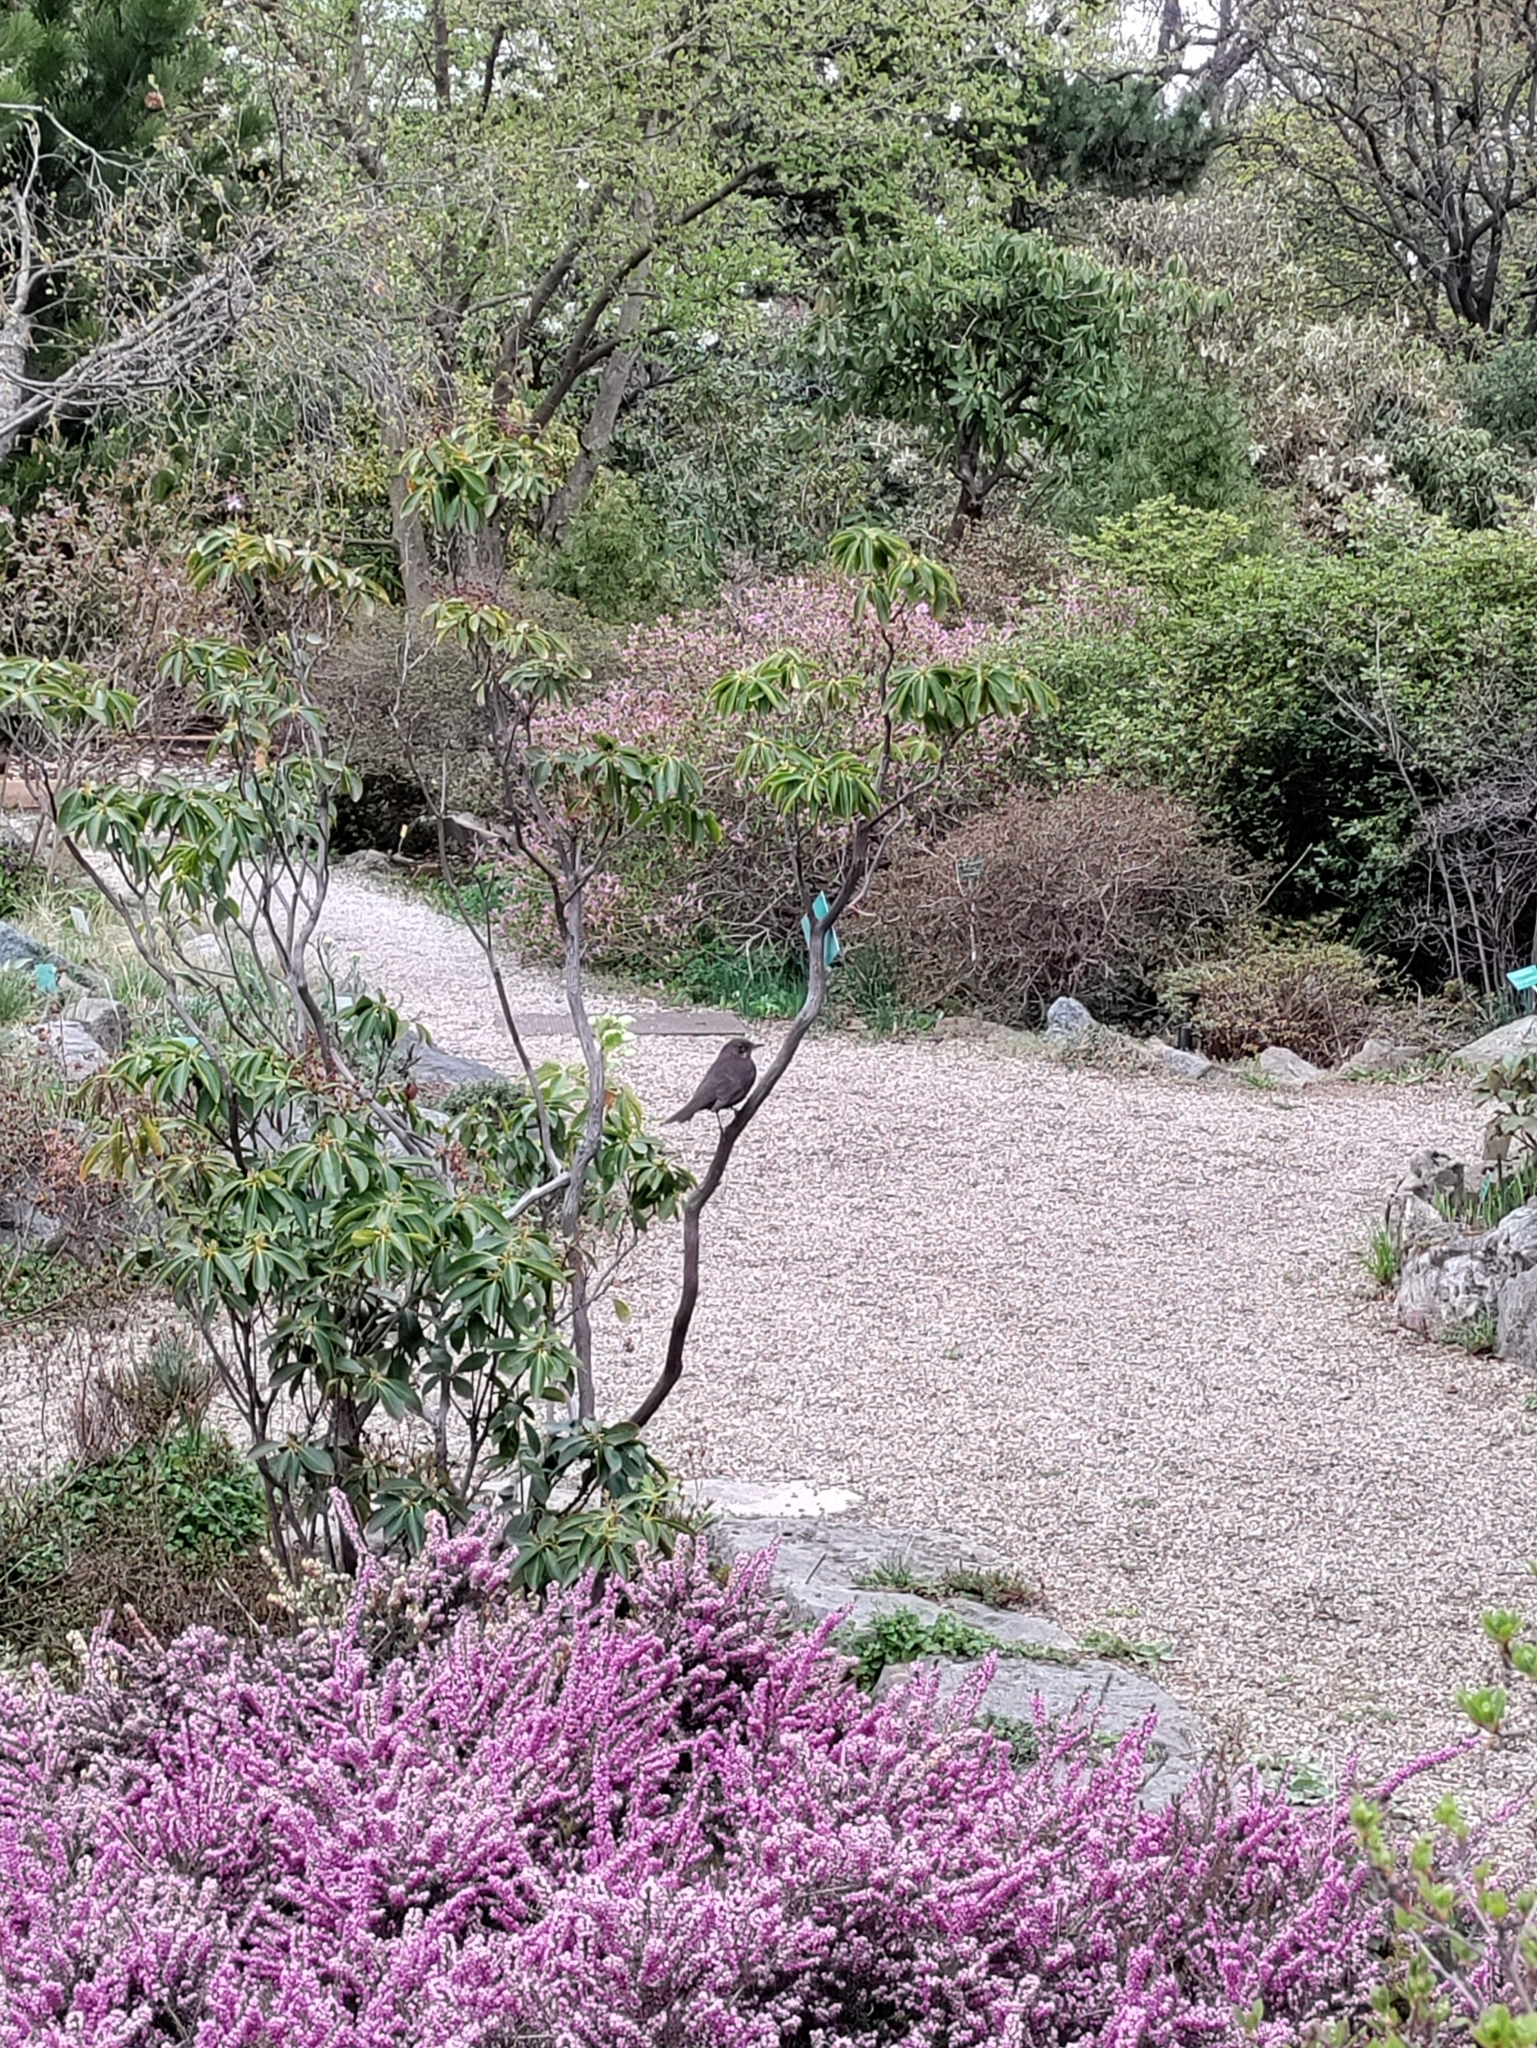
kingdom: Animalia
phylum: Chordata
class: Aves
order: Passeriformes
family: Turdidae
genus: Turdus
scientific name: Turdus merula
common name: Common blackbird
